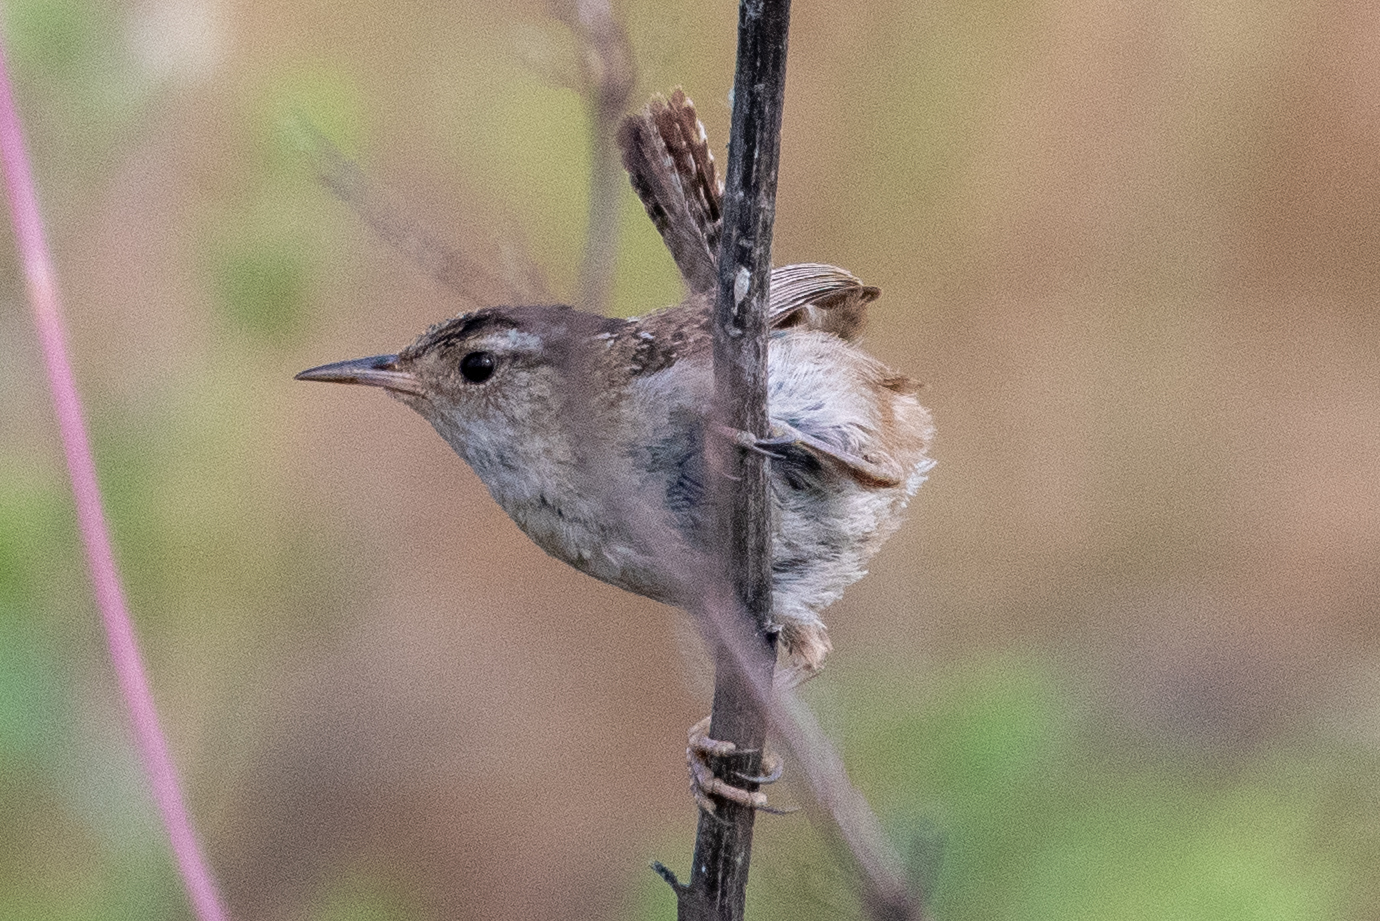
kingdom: Animalia
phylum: Chordata
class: Aves
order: Passeriformes
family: Troglodytidae
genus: Cistothorus
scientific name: Cistothorus palustris
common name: Marsh wren
